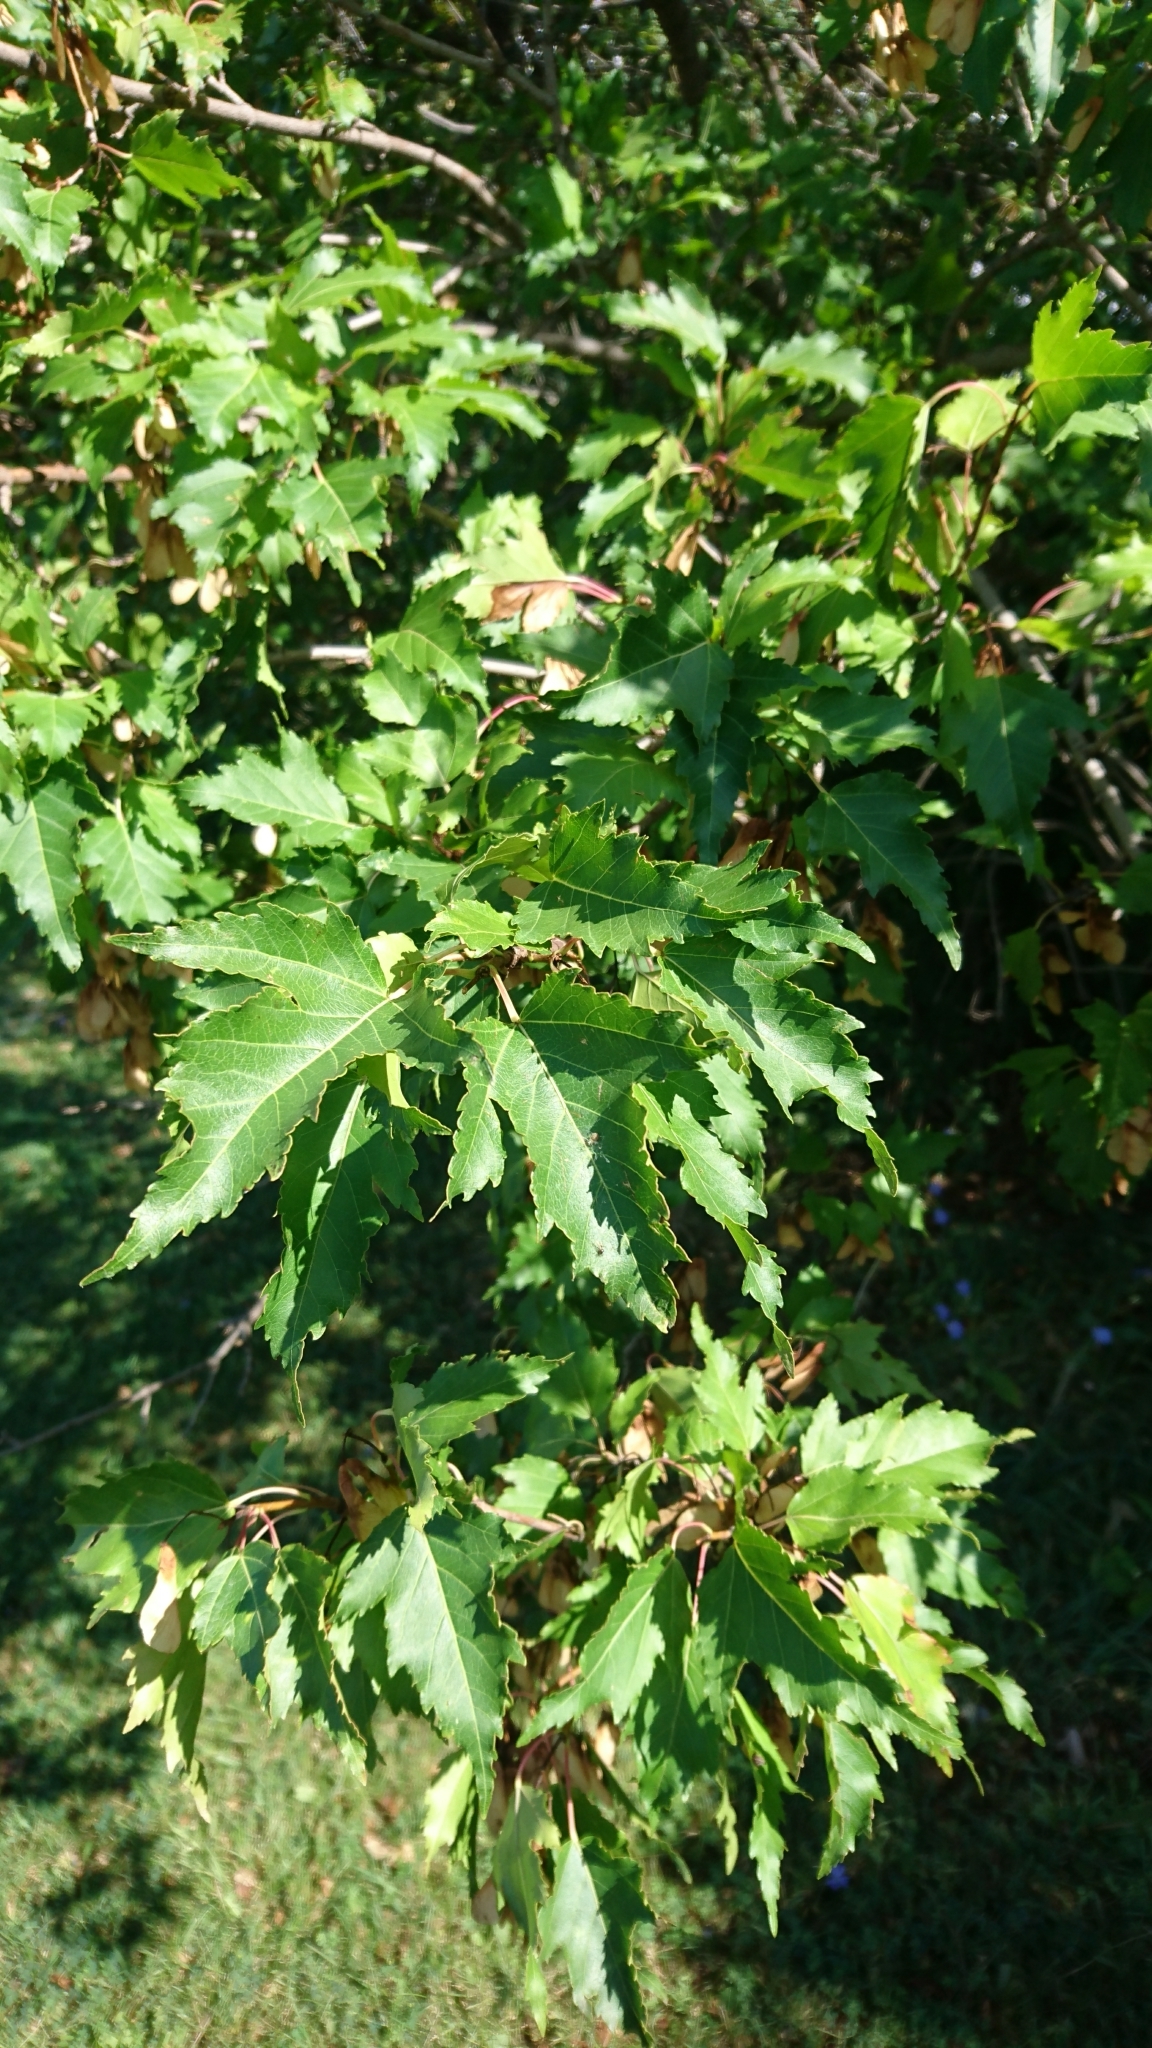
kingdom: Plantae
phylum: Tracheophyta
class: Magnoliopsida
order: Sapindales
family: Sapindaceae
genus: Acer
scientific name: Acer tataricum
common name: Tartar maple
